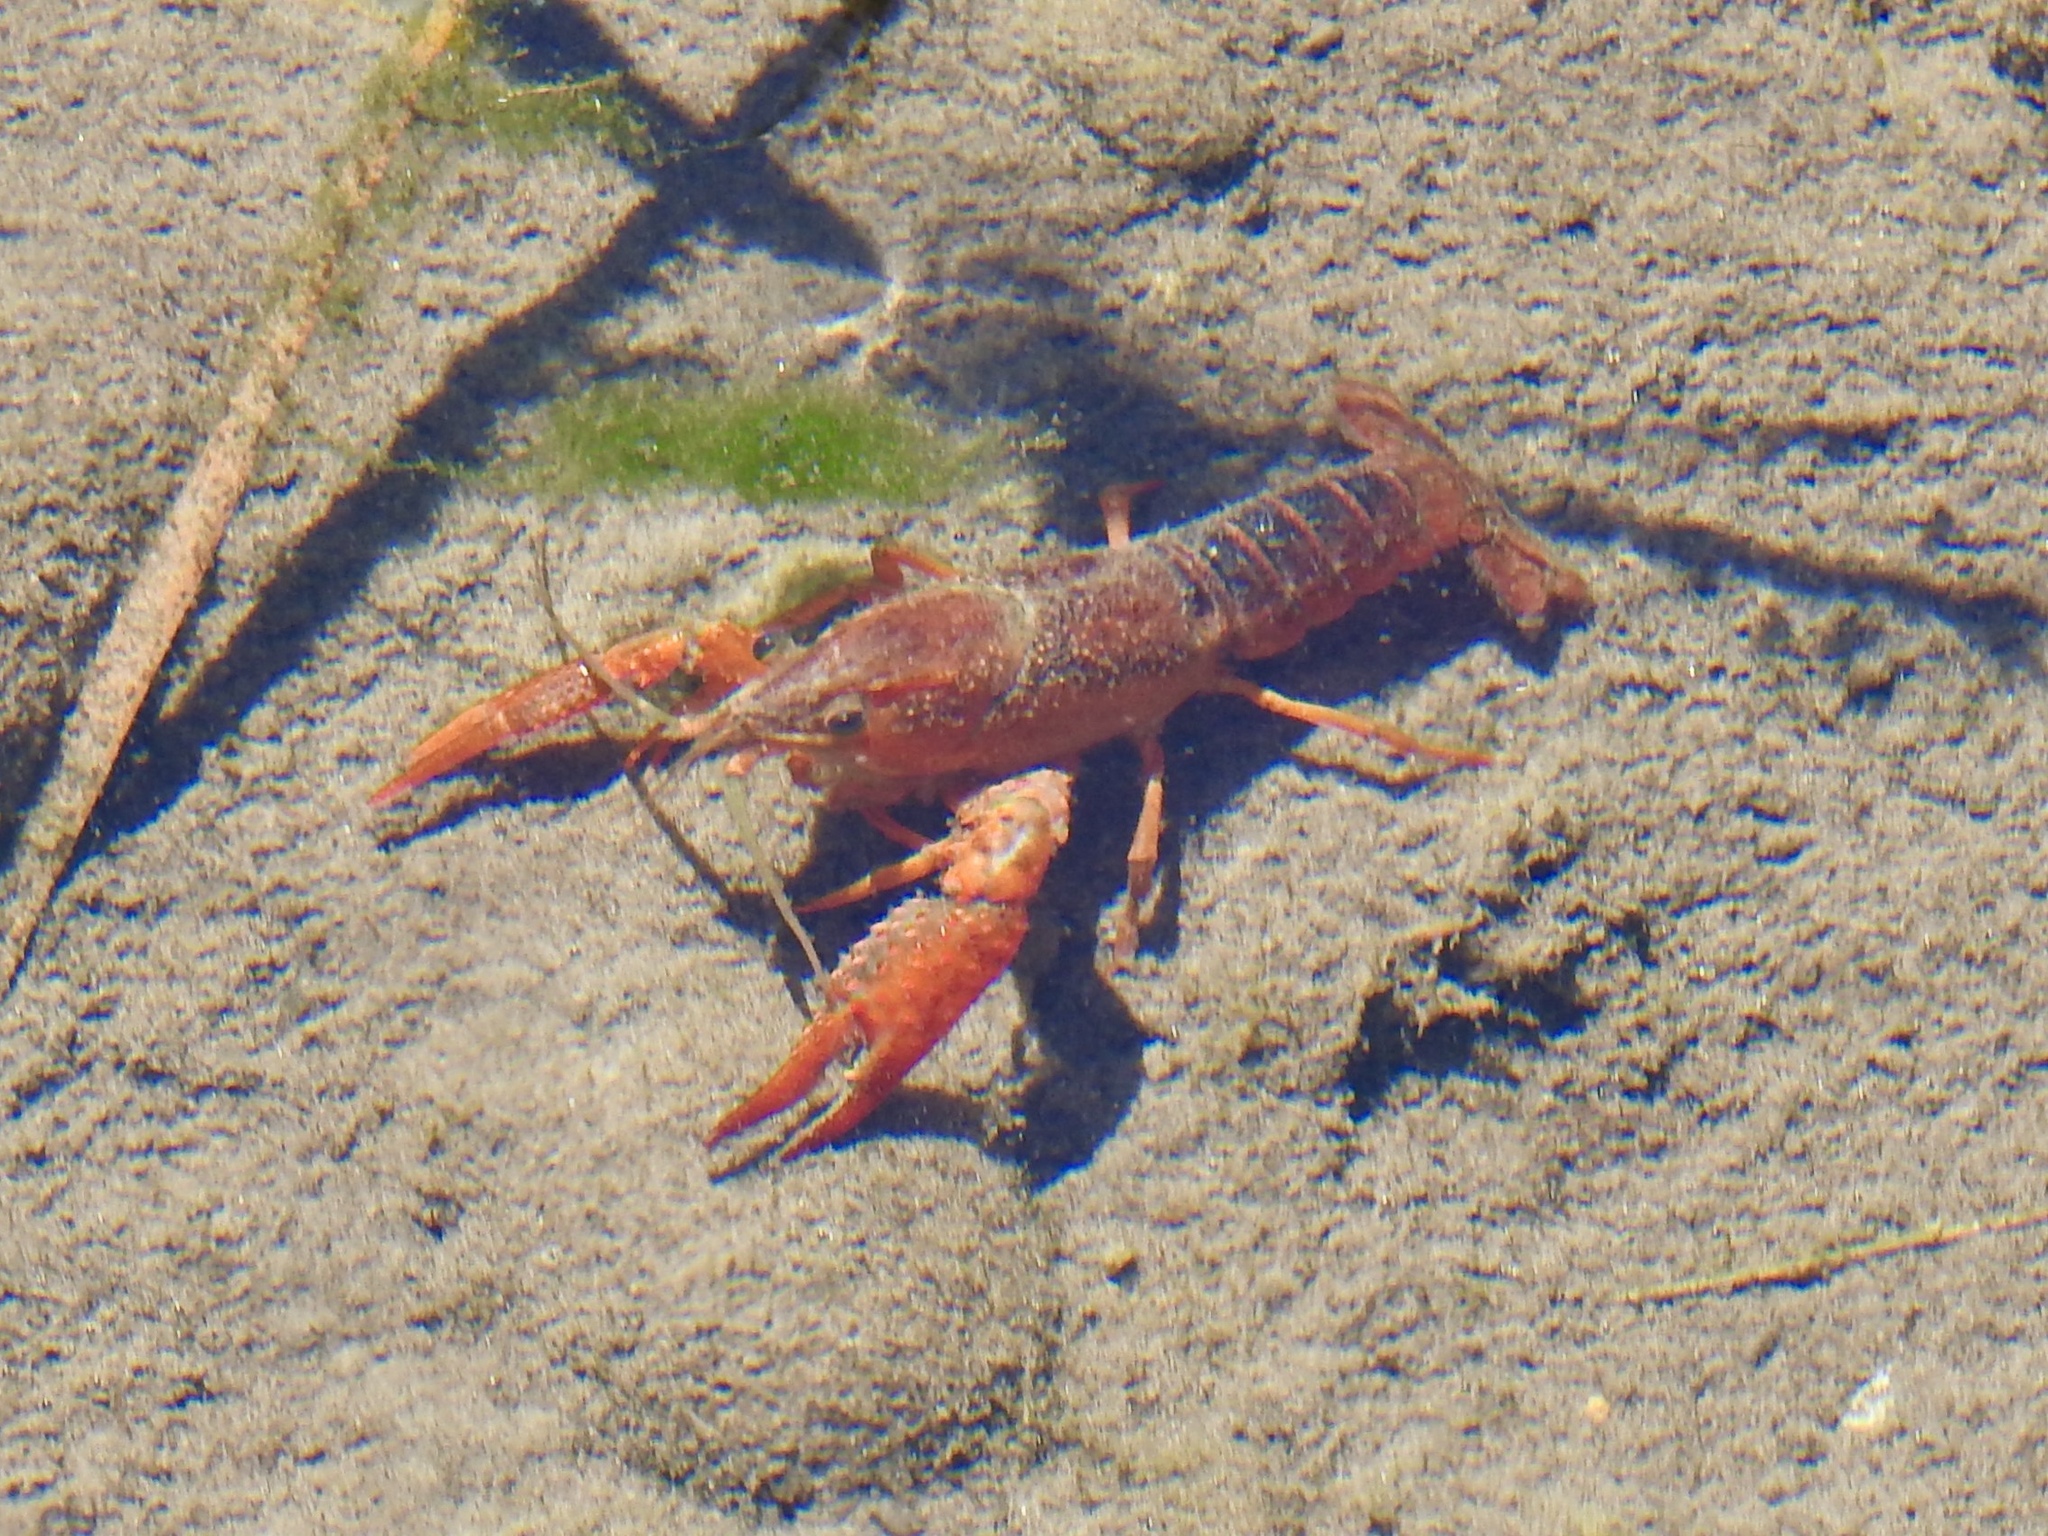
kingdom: Animalia
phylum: Arthropoda
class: Malacostraca
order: Decapoda
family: Cambaridae
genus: Procambarus
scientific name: Procambarus clarkii
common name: Red swamp crayfish
